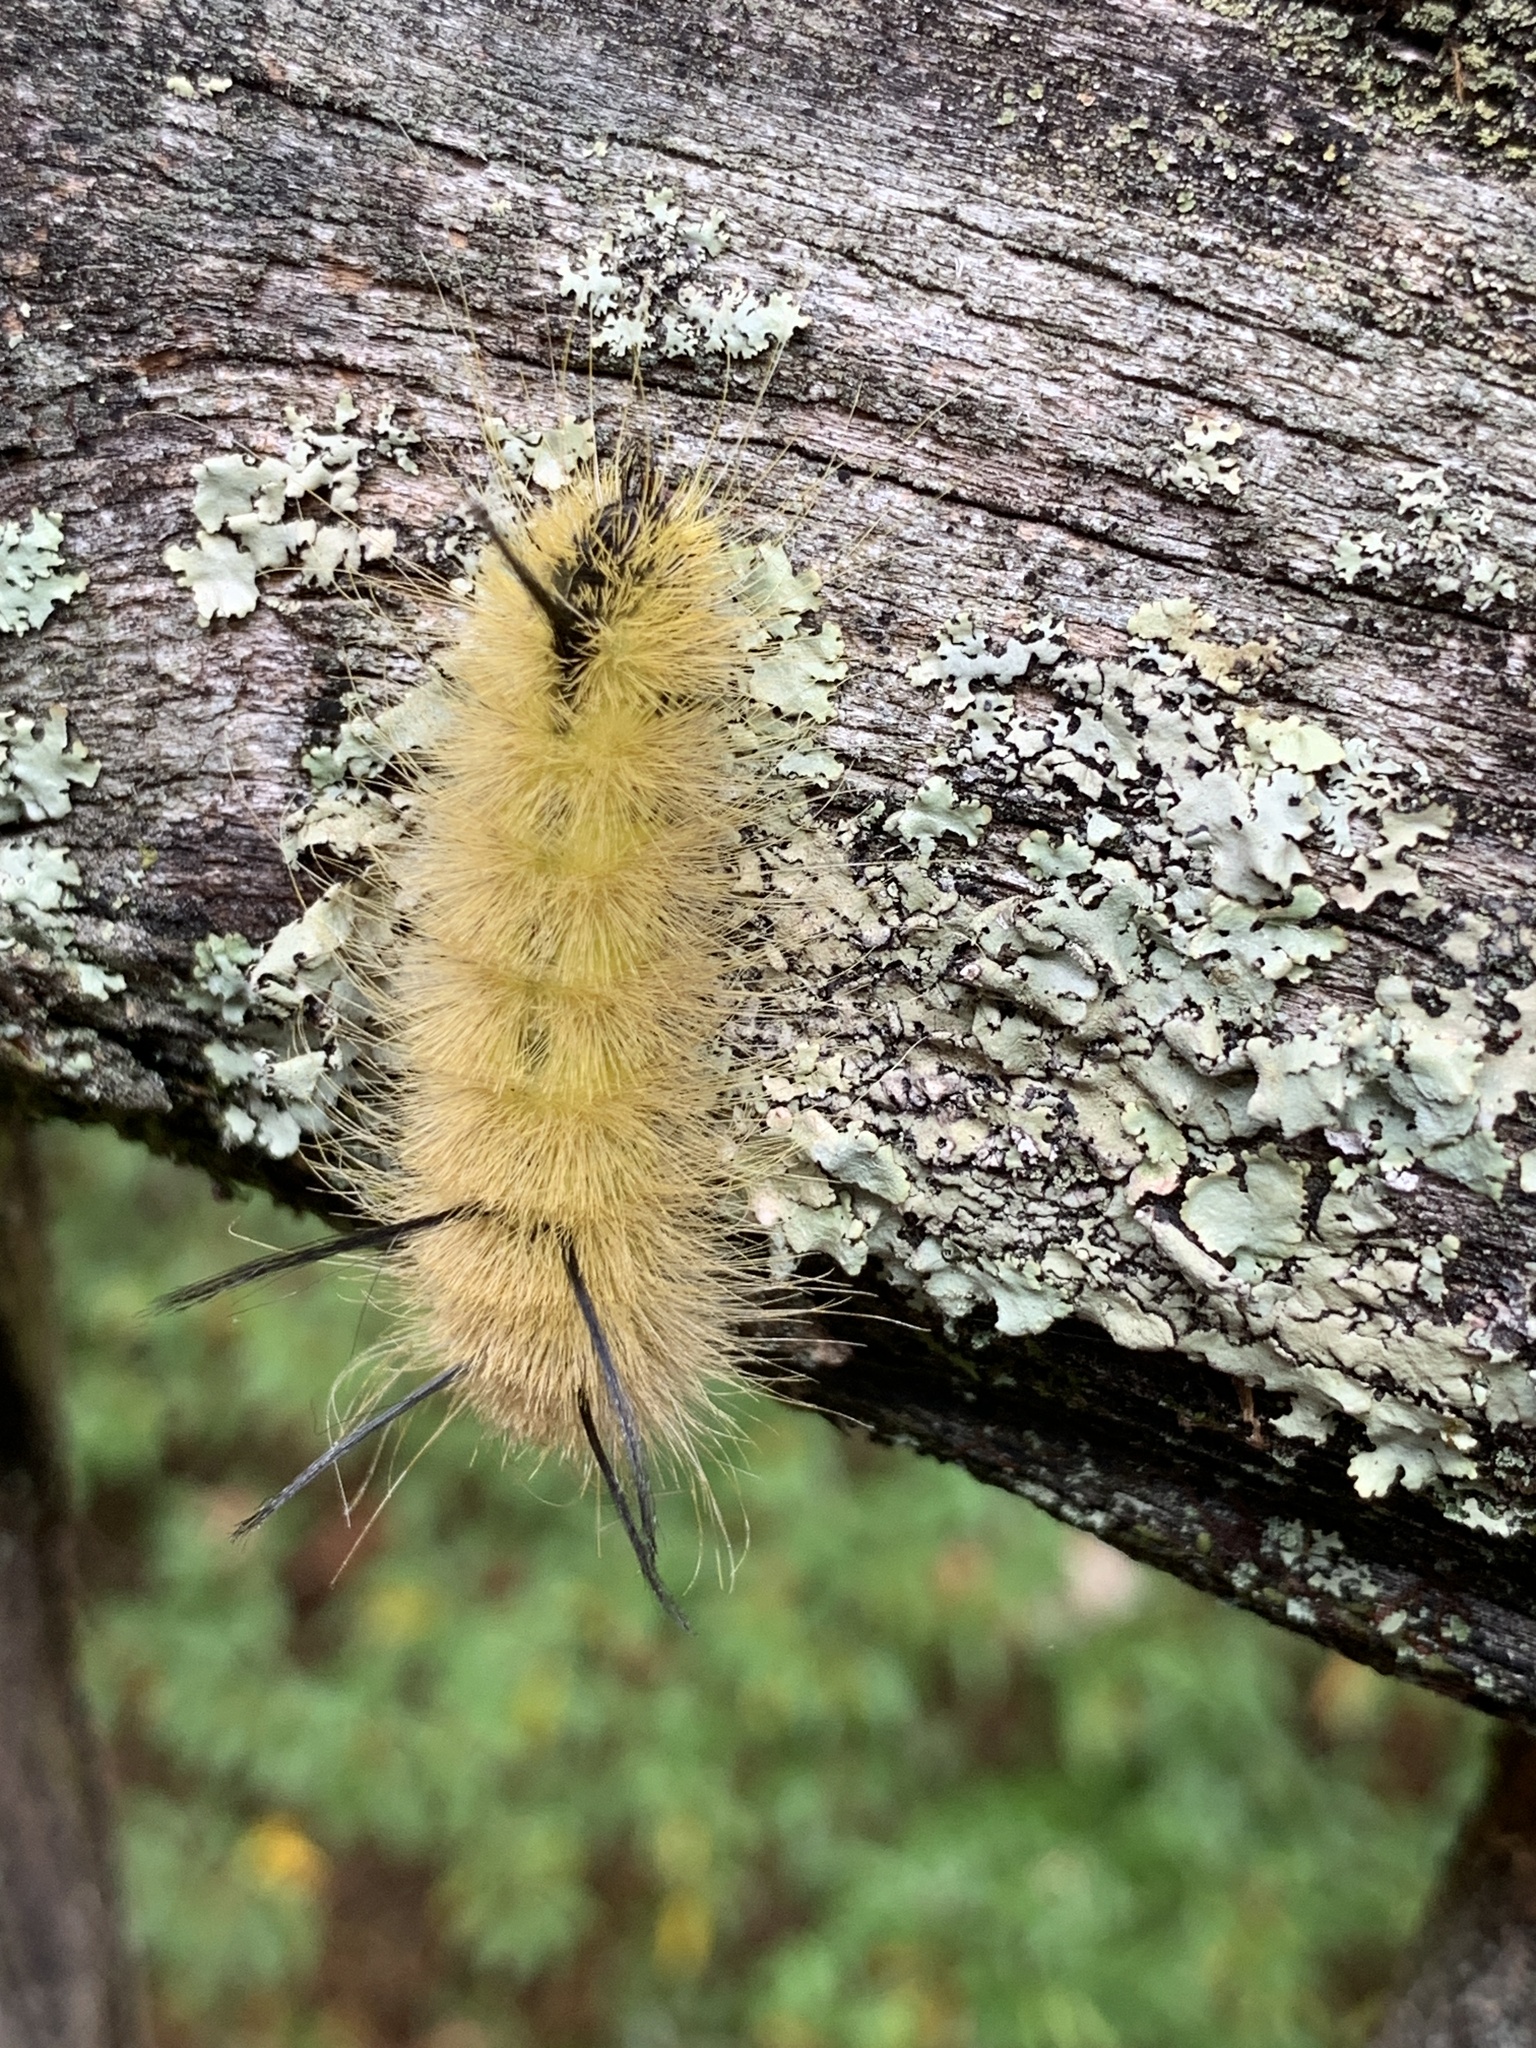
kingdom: Animalia
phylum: Arthropoda
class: Insecta
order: Lepidoptera
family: Noctuidae
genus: Acronicta
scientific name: Acronicta americana
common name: American dagger
